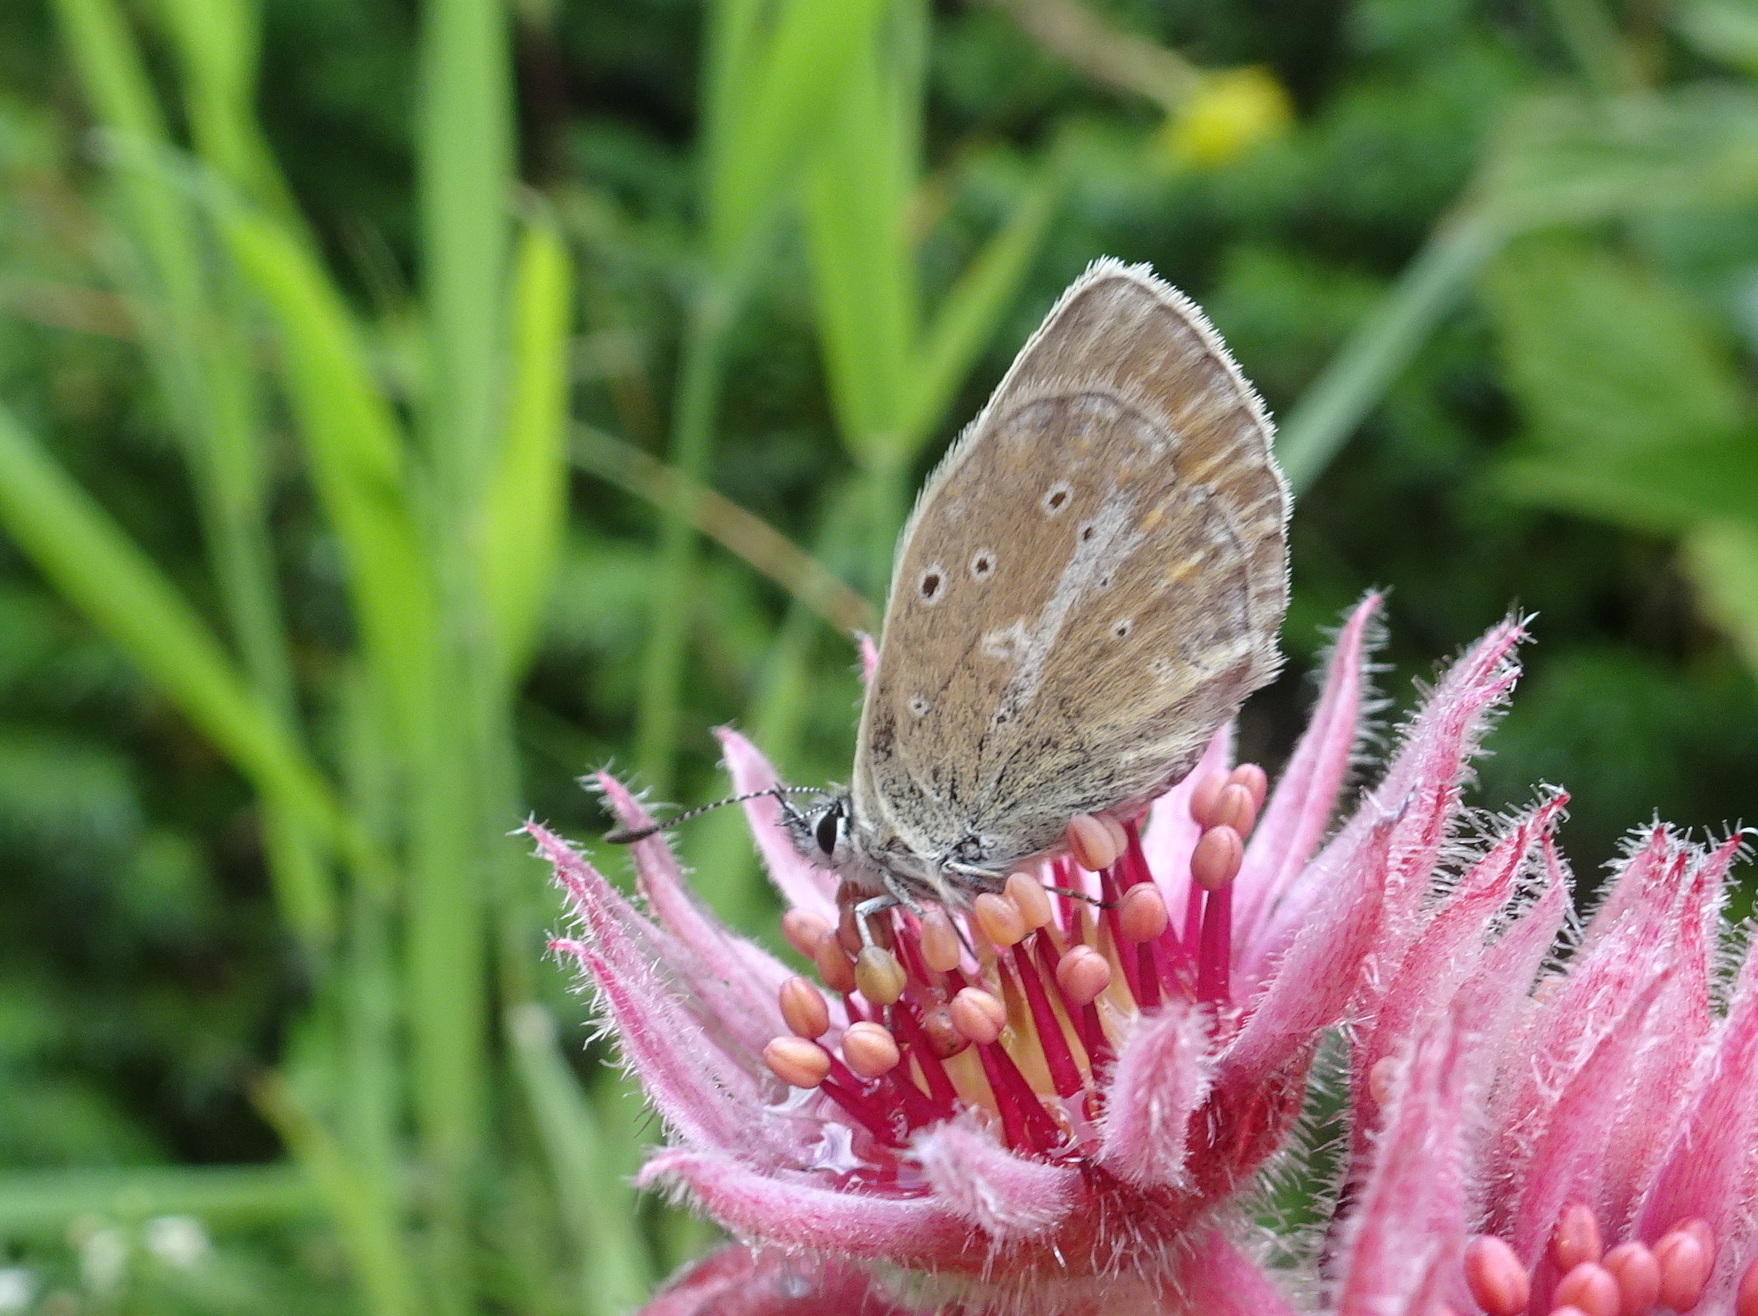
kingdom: Animalia
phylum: Arthropoda
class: Insecta
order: Lepidoptera
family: Lycaenidae
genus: Pseudoaricia
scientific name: Pseudoaricia nicias
